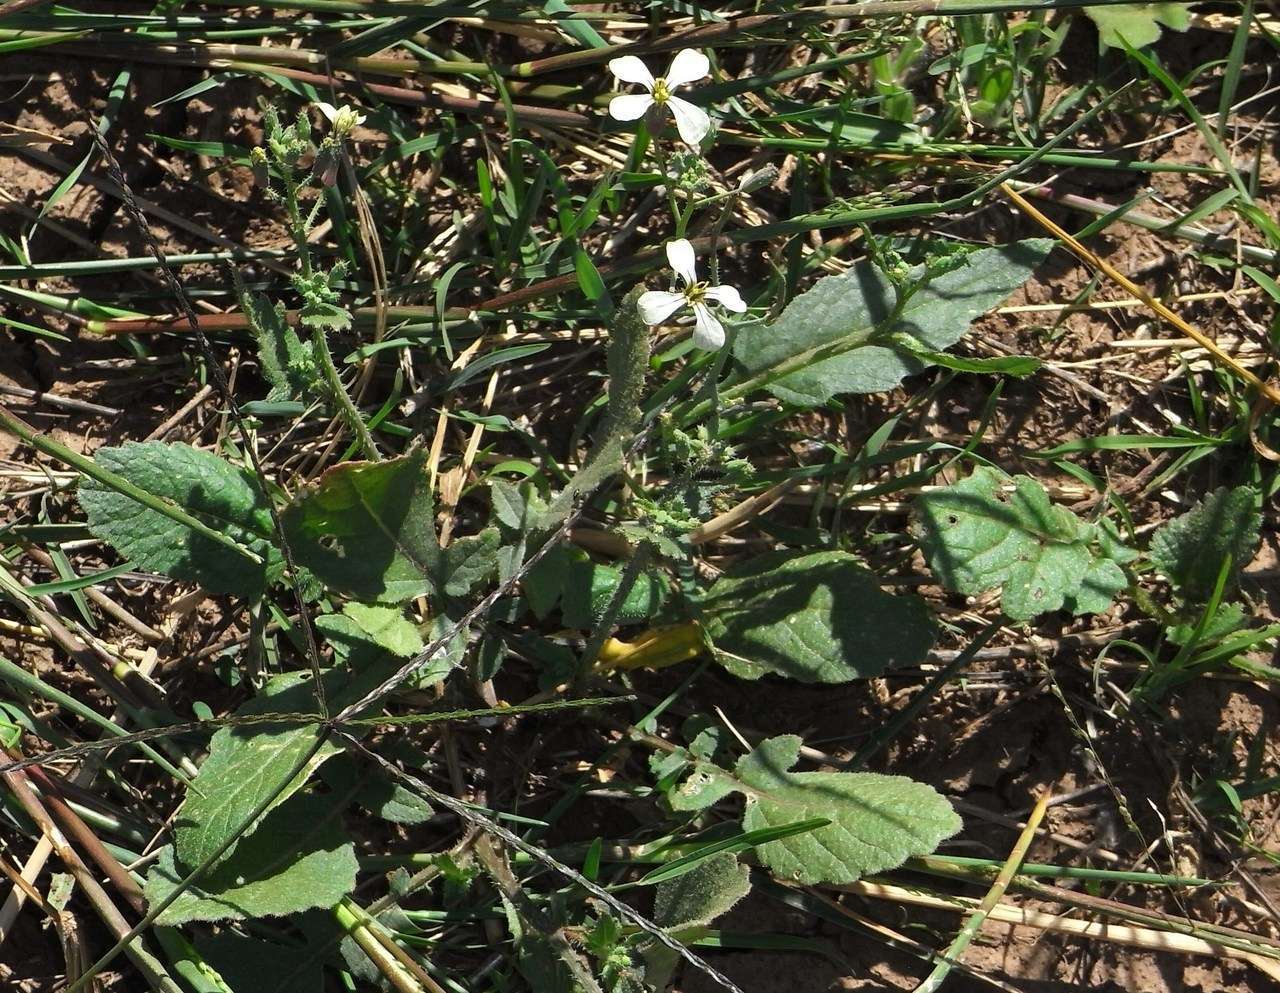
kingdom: Plantae
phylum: Tracheophyta
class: Magnoliopsida
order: Brassicales
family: Brassicaceae
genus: Raphanus
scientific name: Raphanus raphanistrum
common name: Wild radish
